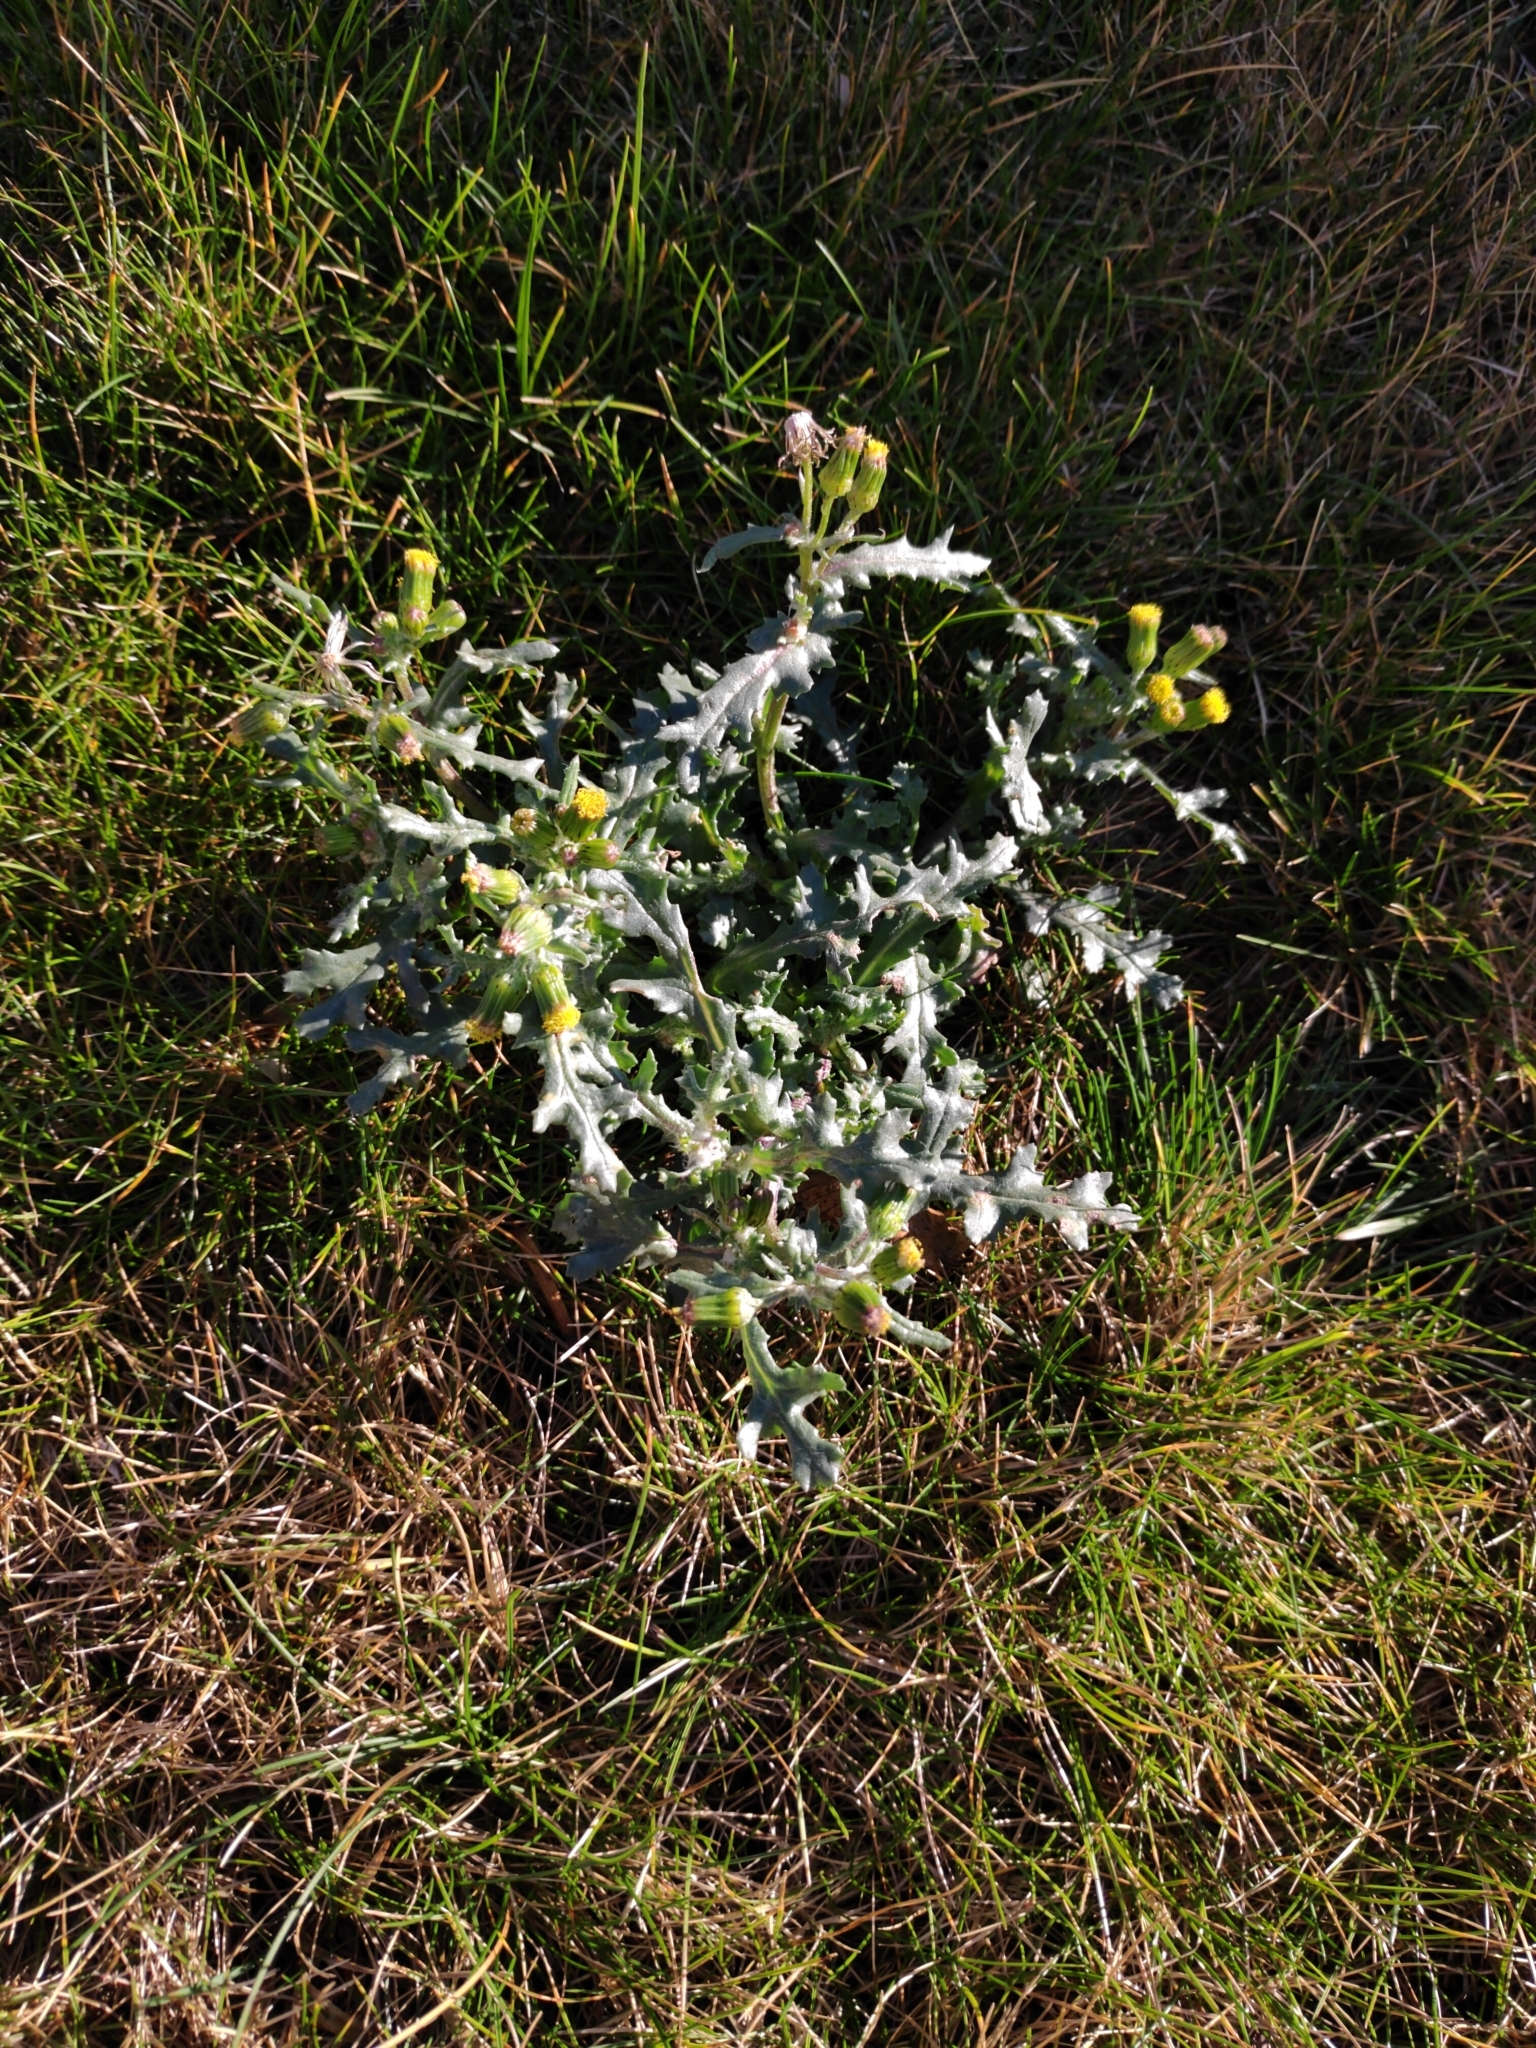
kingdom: Plantae
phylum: Tracheophyta
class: Magnoliopsida
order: Asterales
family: Asteraceae
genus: Senecio
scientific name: Senecio vulgaris
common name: Old-man-in-the-spring
